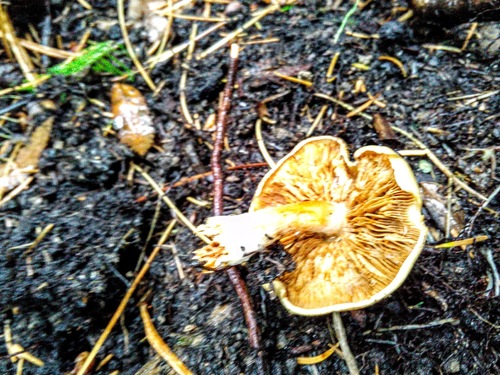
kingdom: Fungi
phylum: Basidiomycota
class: Agaricomycetes
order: Agaricales
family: Cortinariaceae
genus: Cortinarius
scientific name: Cortinarius
